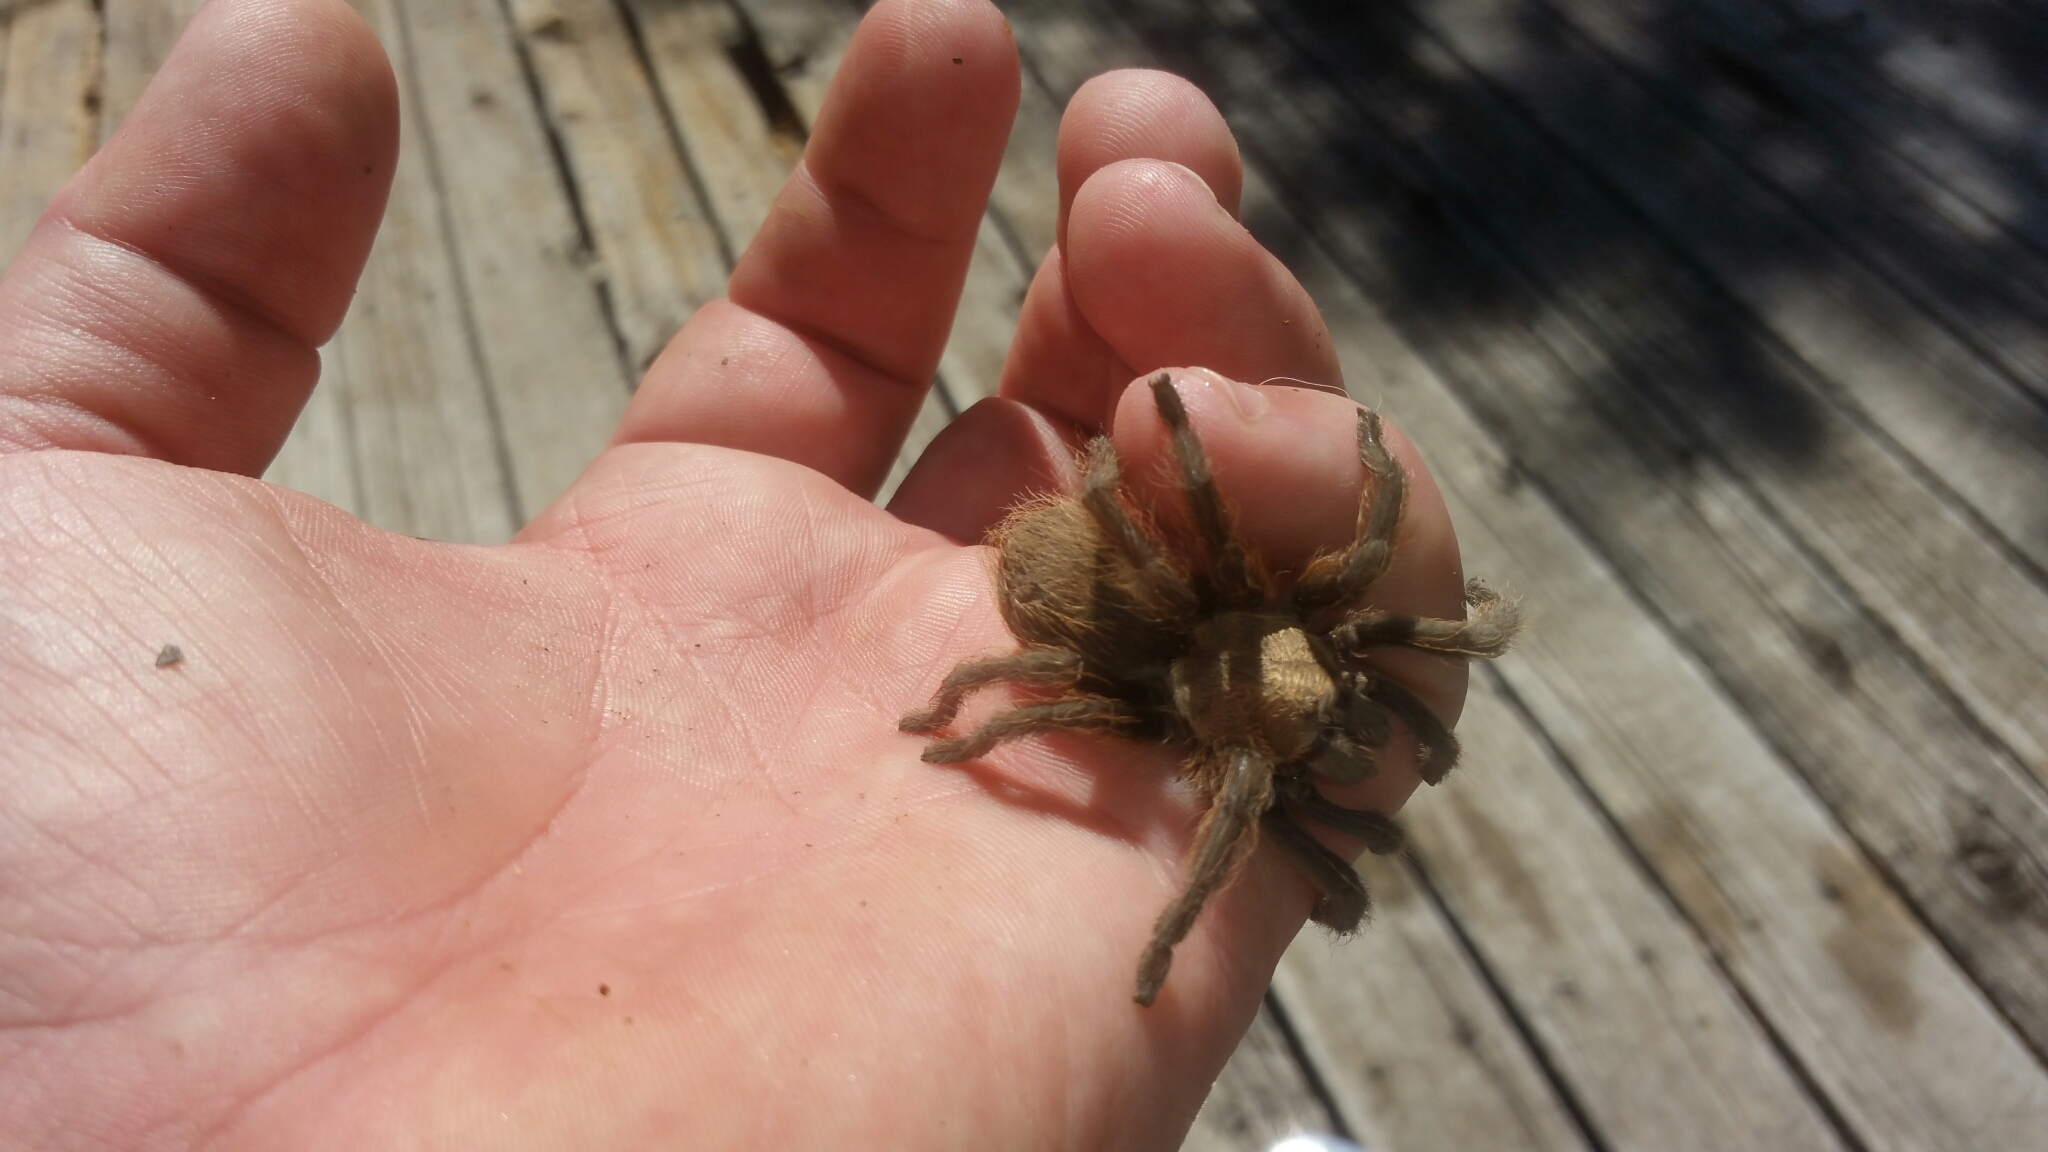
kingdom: Animalia
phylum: Arthropoda
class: Arachnida
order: Araneae
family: Theraphosidae
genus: Aphonopelma
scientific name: Aphonopelma hentzi
